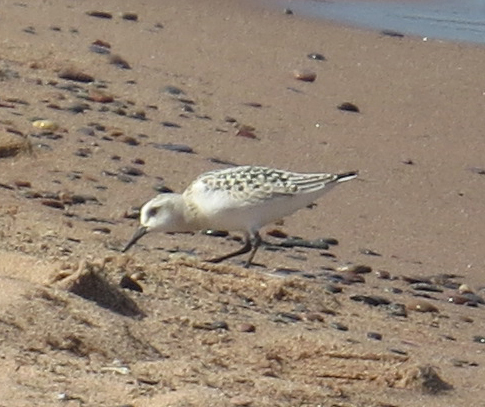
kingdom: Animalia
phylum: Chordata
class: Aves
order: Charadriiformes
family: Scolopacidae
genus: Calidris
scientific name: Calidris alba
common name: Sanderling
